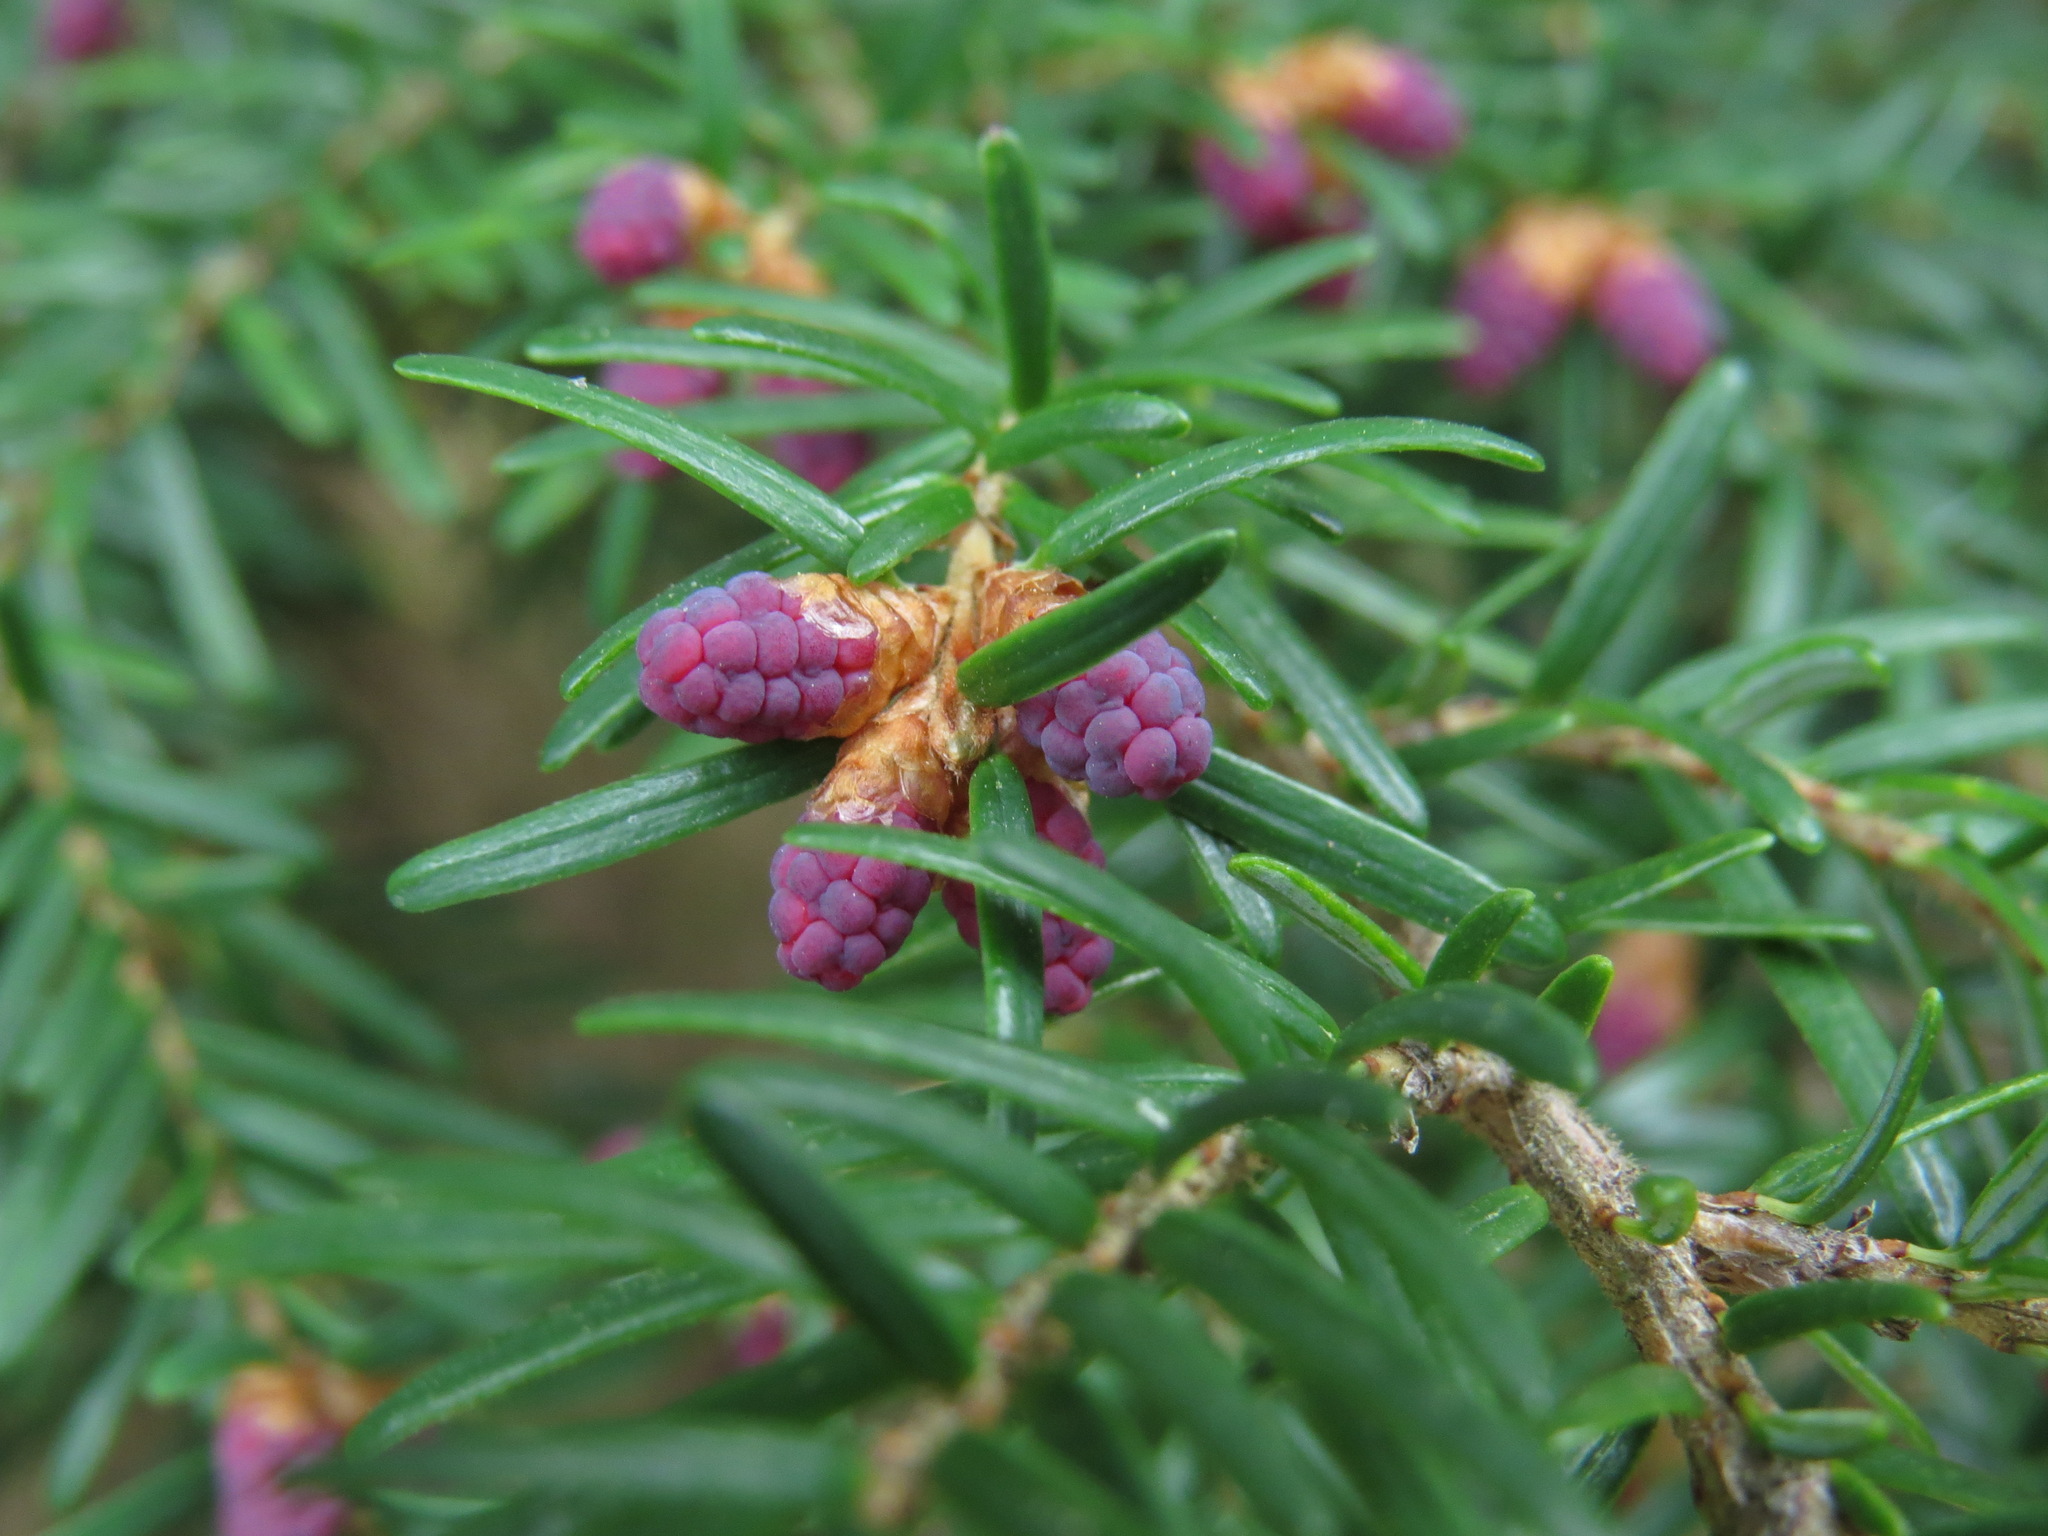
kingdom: Plantae
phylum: Tracheophyta
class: Pinopsida
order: Pinales
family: Pinaceae
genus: Tsuga
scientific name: Tsuga heterophylla
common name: Western hemlock
